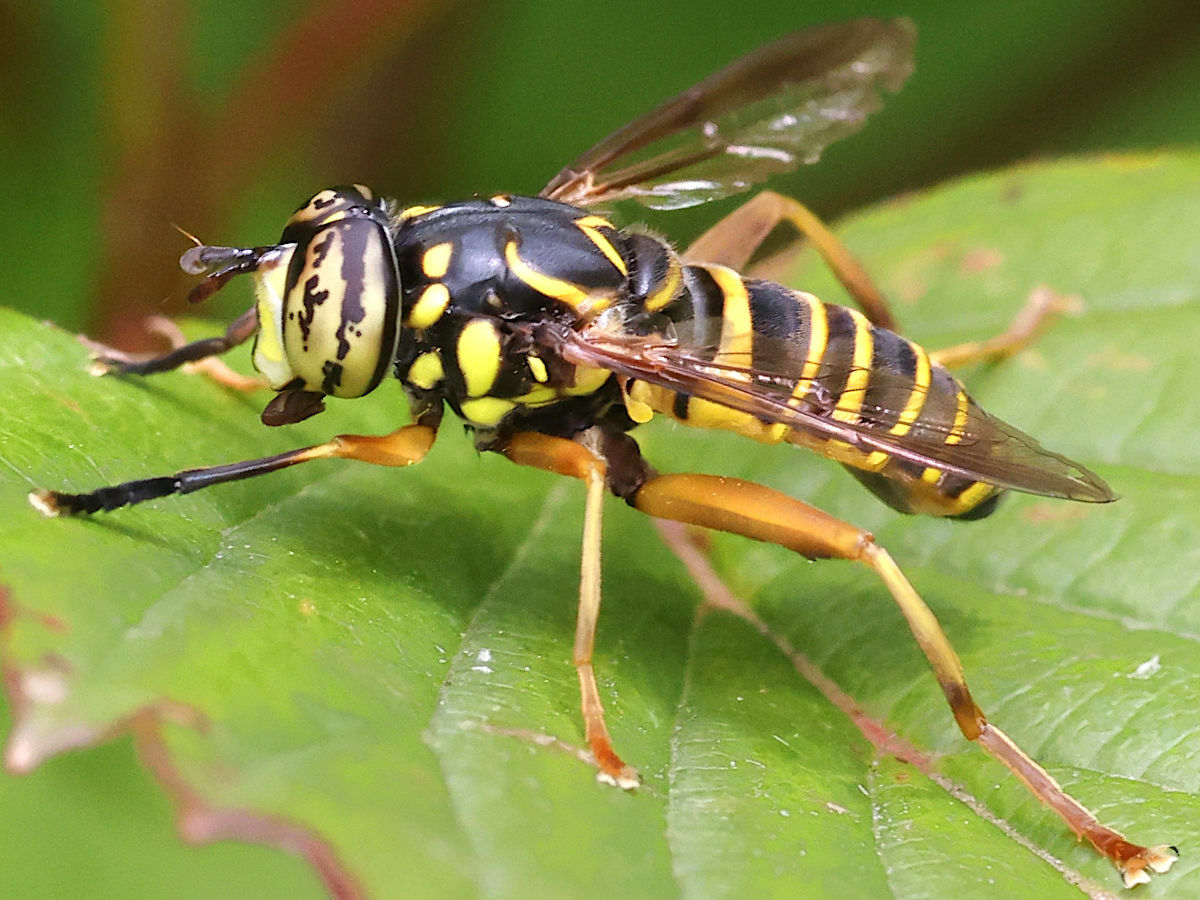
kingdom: Animalia
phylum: Arthropoda
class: Insecta
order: Diptera
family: Syrphidae
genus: Spilomyia
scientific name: Spilomyia longicornis
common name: Eastern hornet fly
